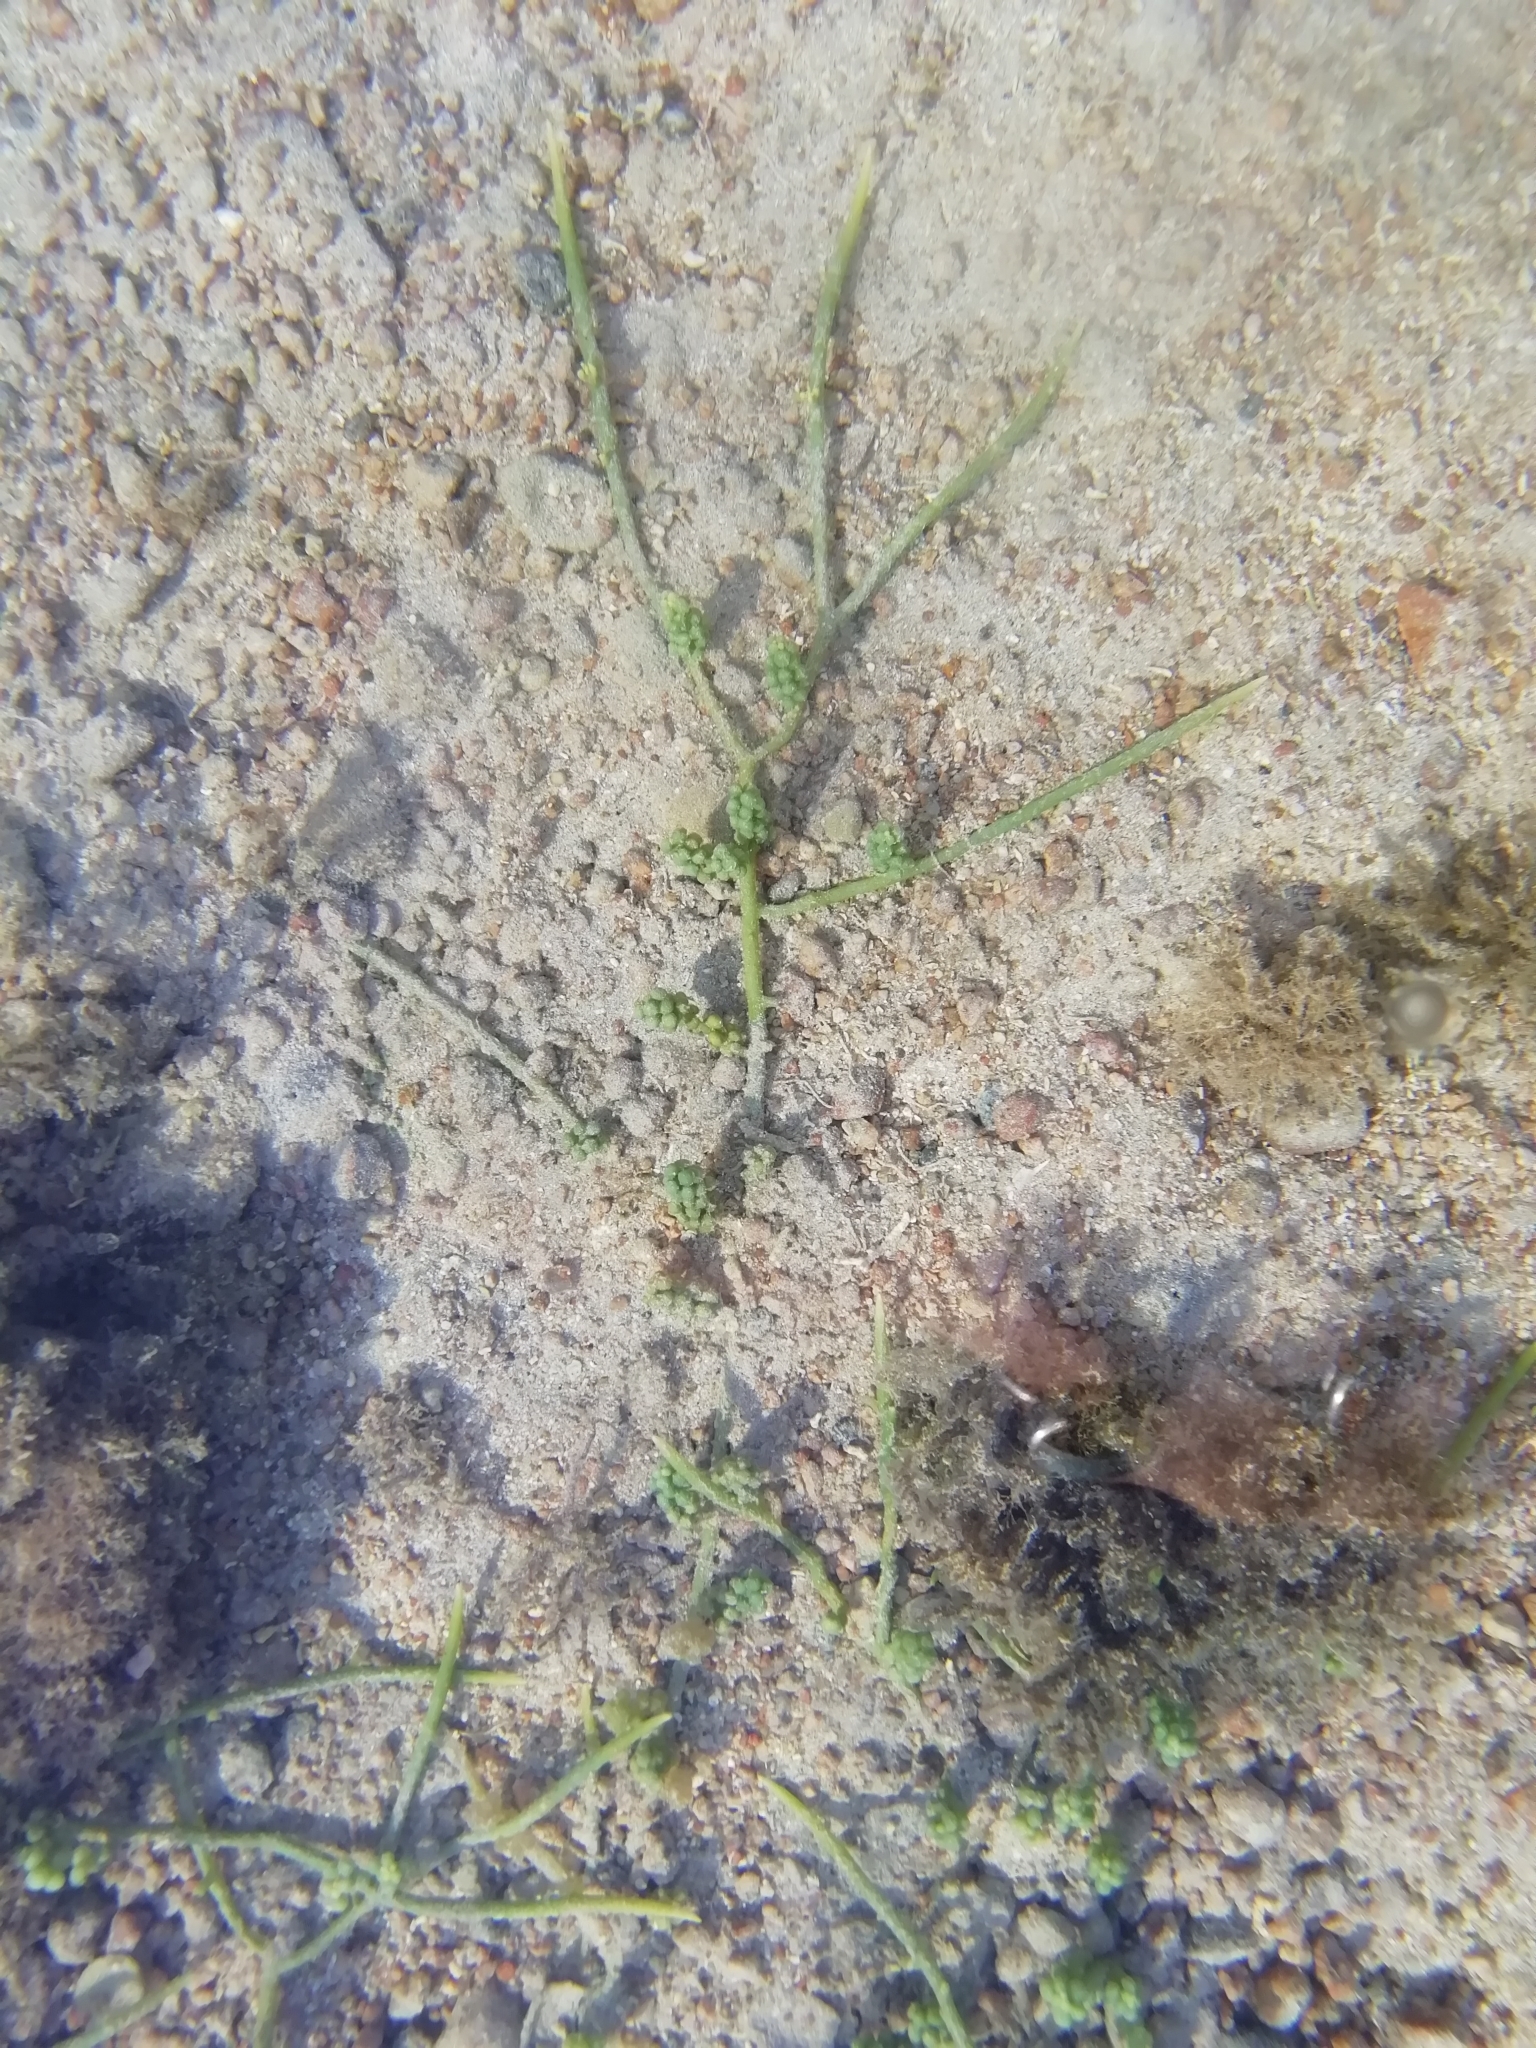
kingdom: Plantae
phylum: Chlorophyta
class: Ulvophyceae
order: Bryopsidales
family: Caulerpaceae
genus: Caulerpa
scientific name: Caulerpa racemosa
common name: Green grape algae
